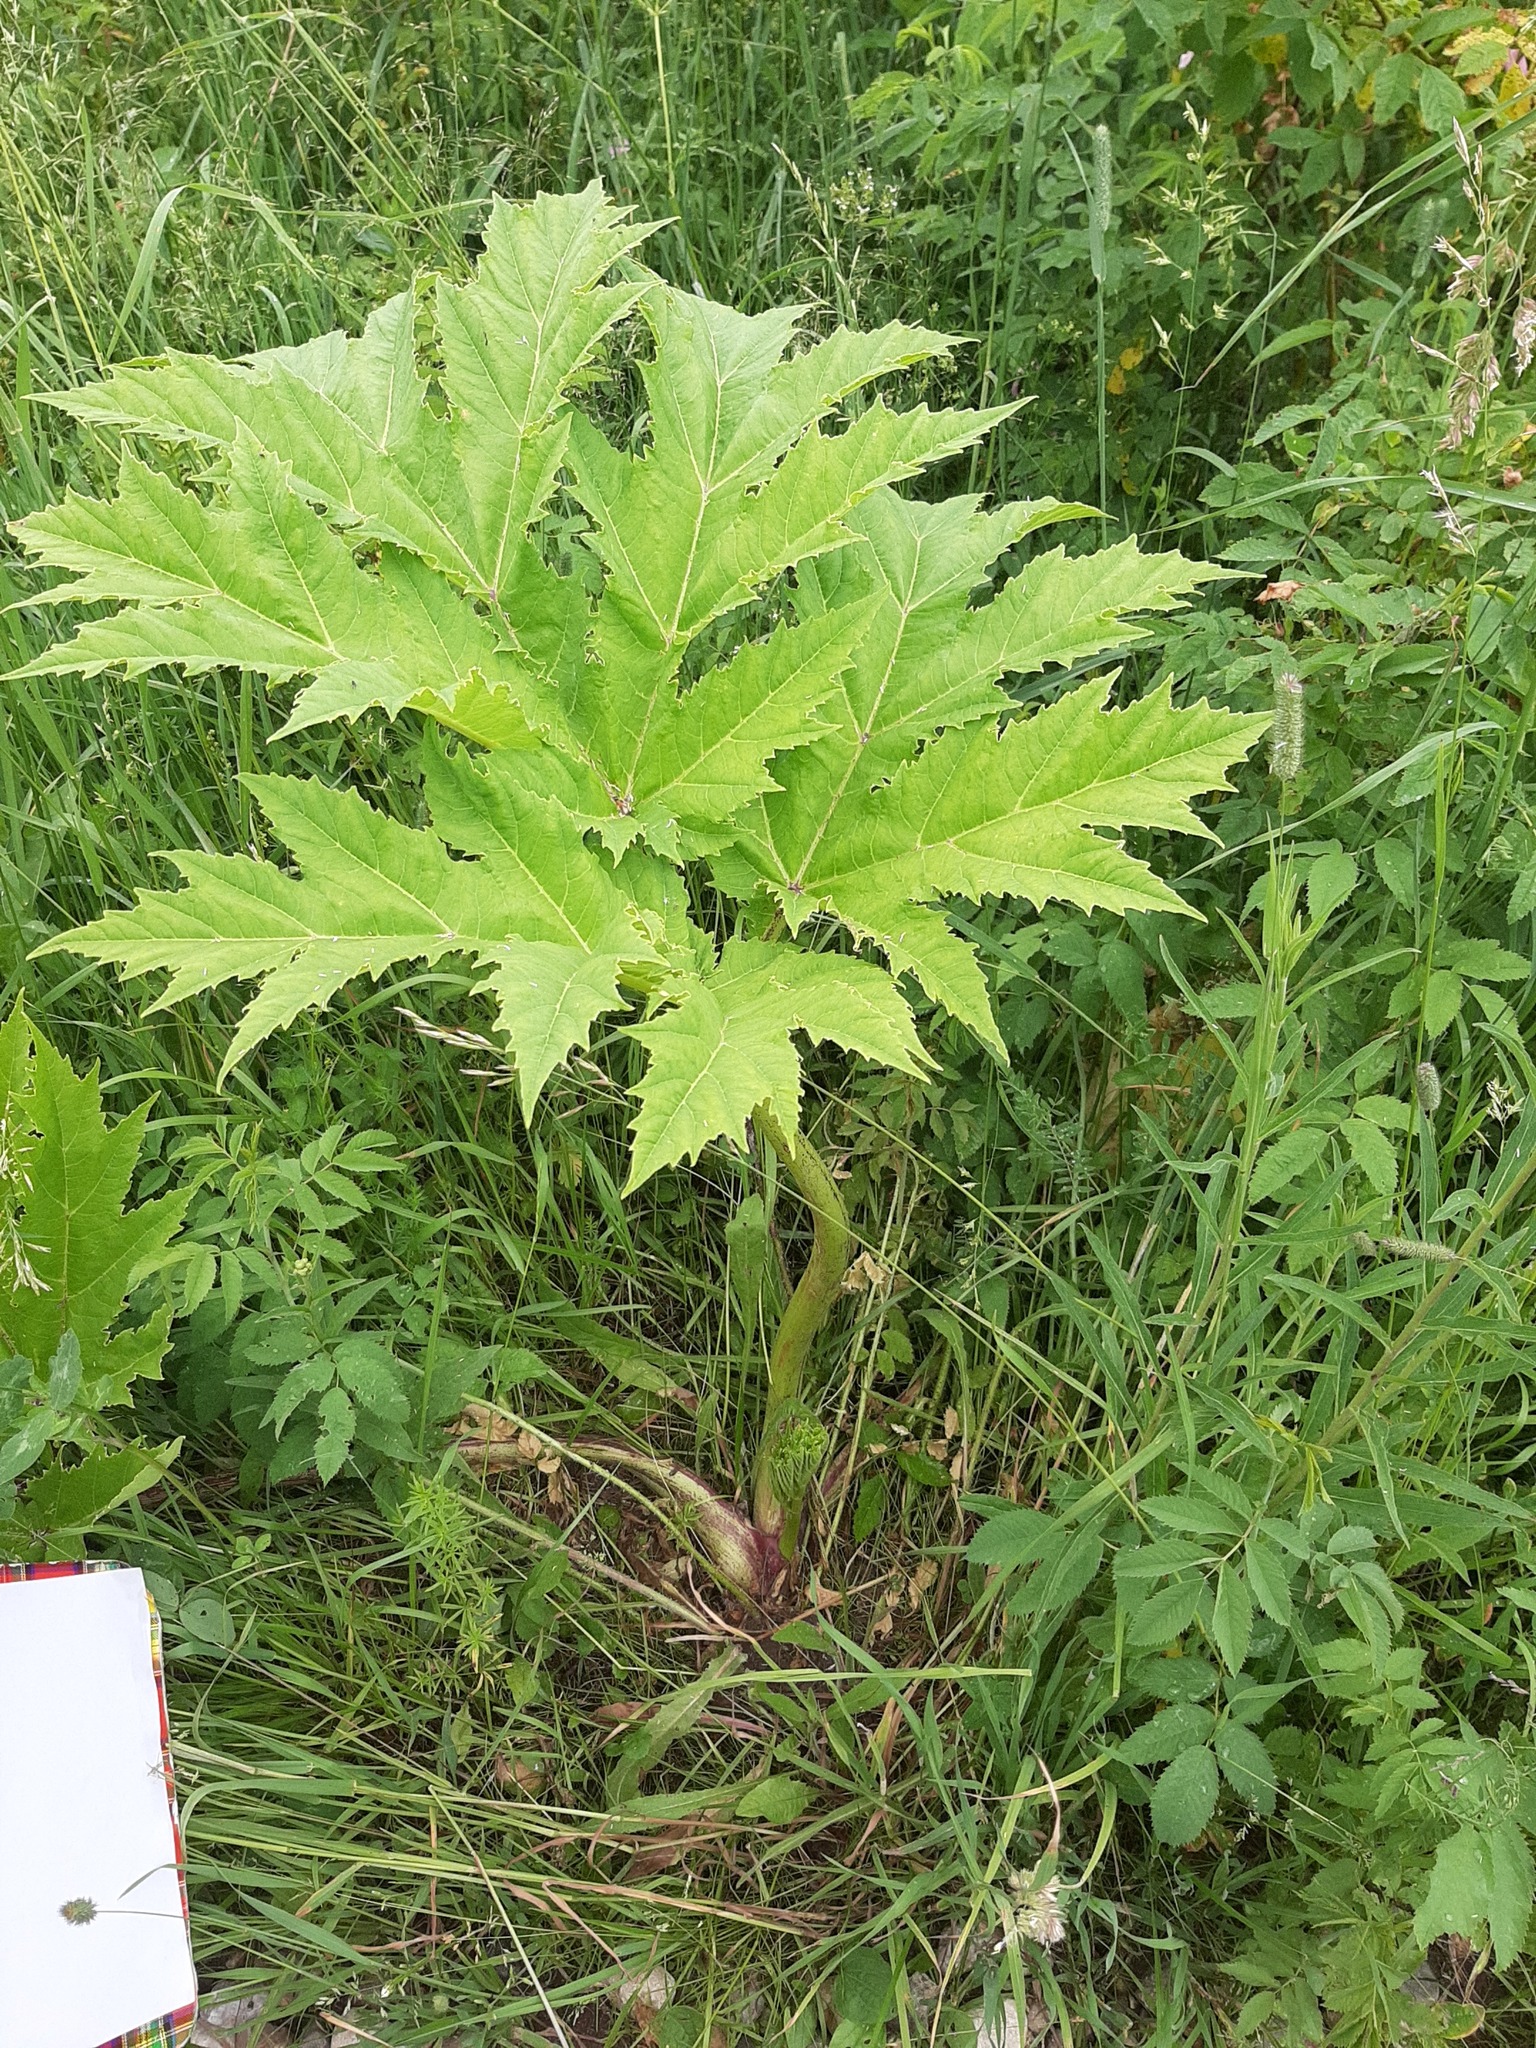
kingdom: Plantae
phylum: Tracheophyta
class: Magnoliopsida
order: Apiales
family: Apiaceae
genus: Heracleum
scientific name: Heracleum sosnowskyi
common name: Sosnowsky's hogweed
